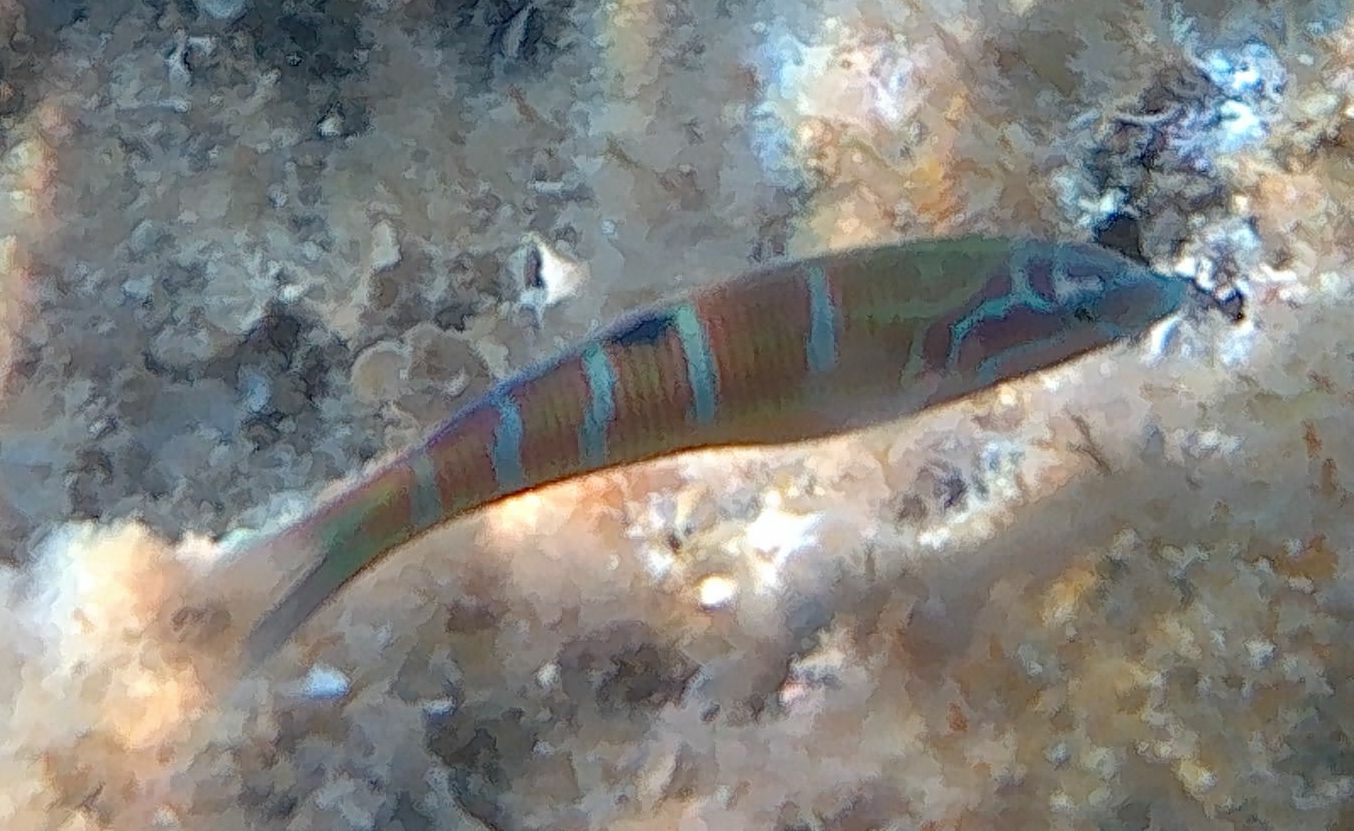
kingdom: Animalia
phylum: Chordata
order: Perciformes
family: Labridae
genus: Thalassoma
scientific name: Thalassoma pavo
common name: Ornate wrasse
